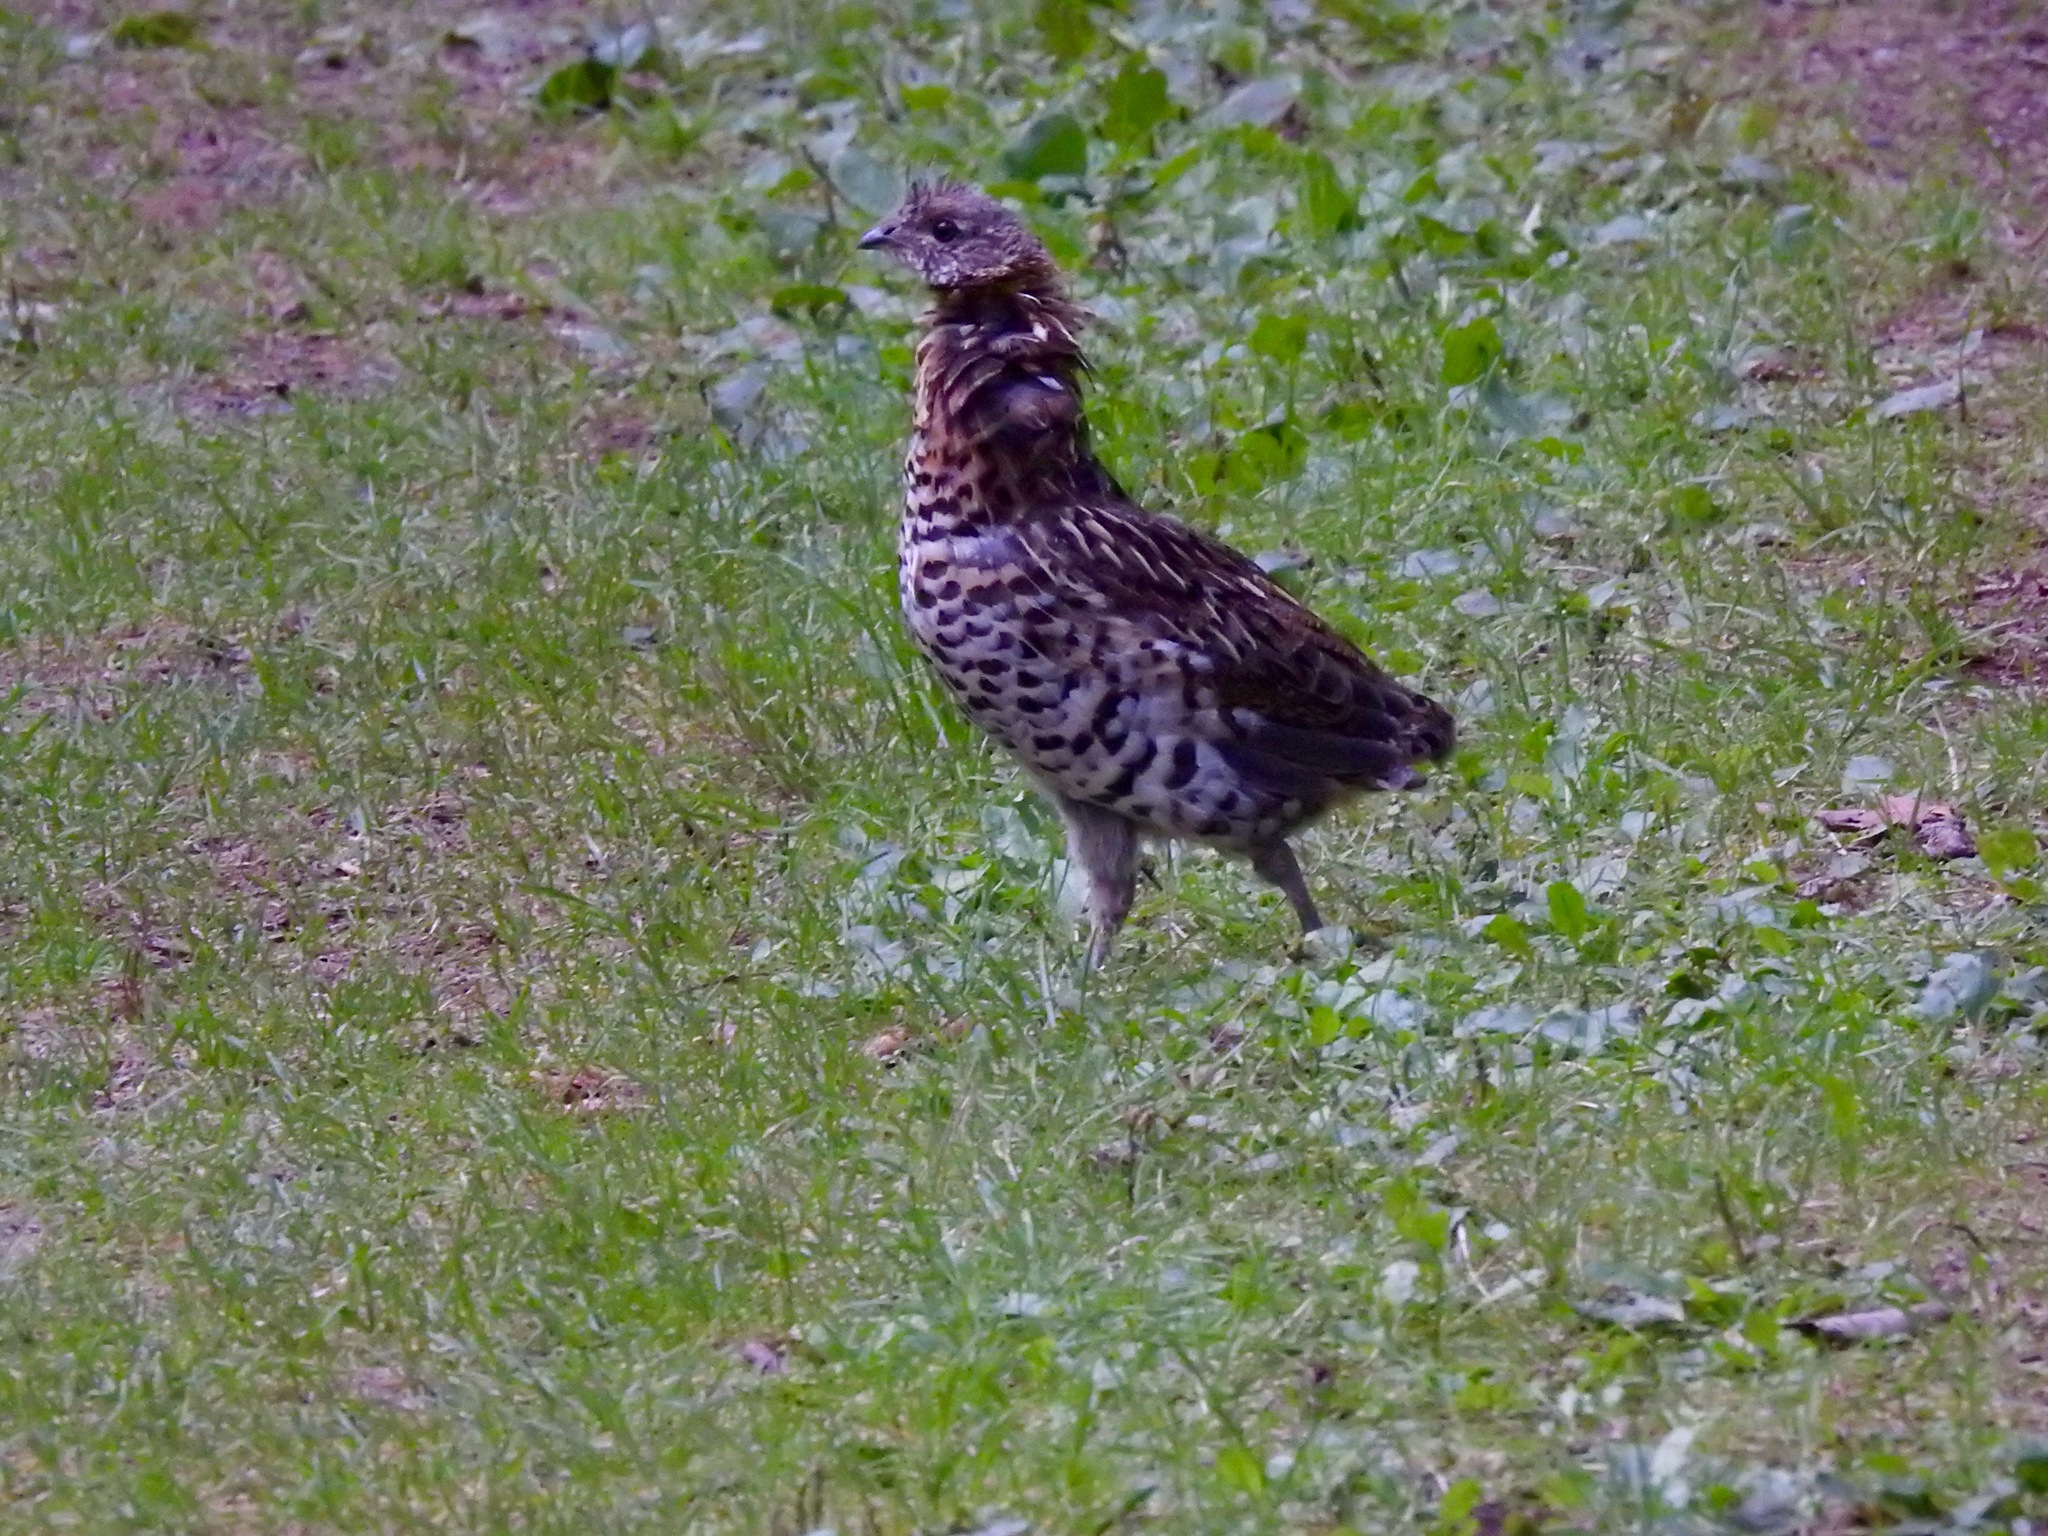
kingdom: Animalia
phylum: Chordata
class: Aves
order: Galliformes
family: Phasianidae
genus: Bonasa
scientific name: Bonasa umbellus
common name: Ruffed grouse
